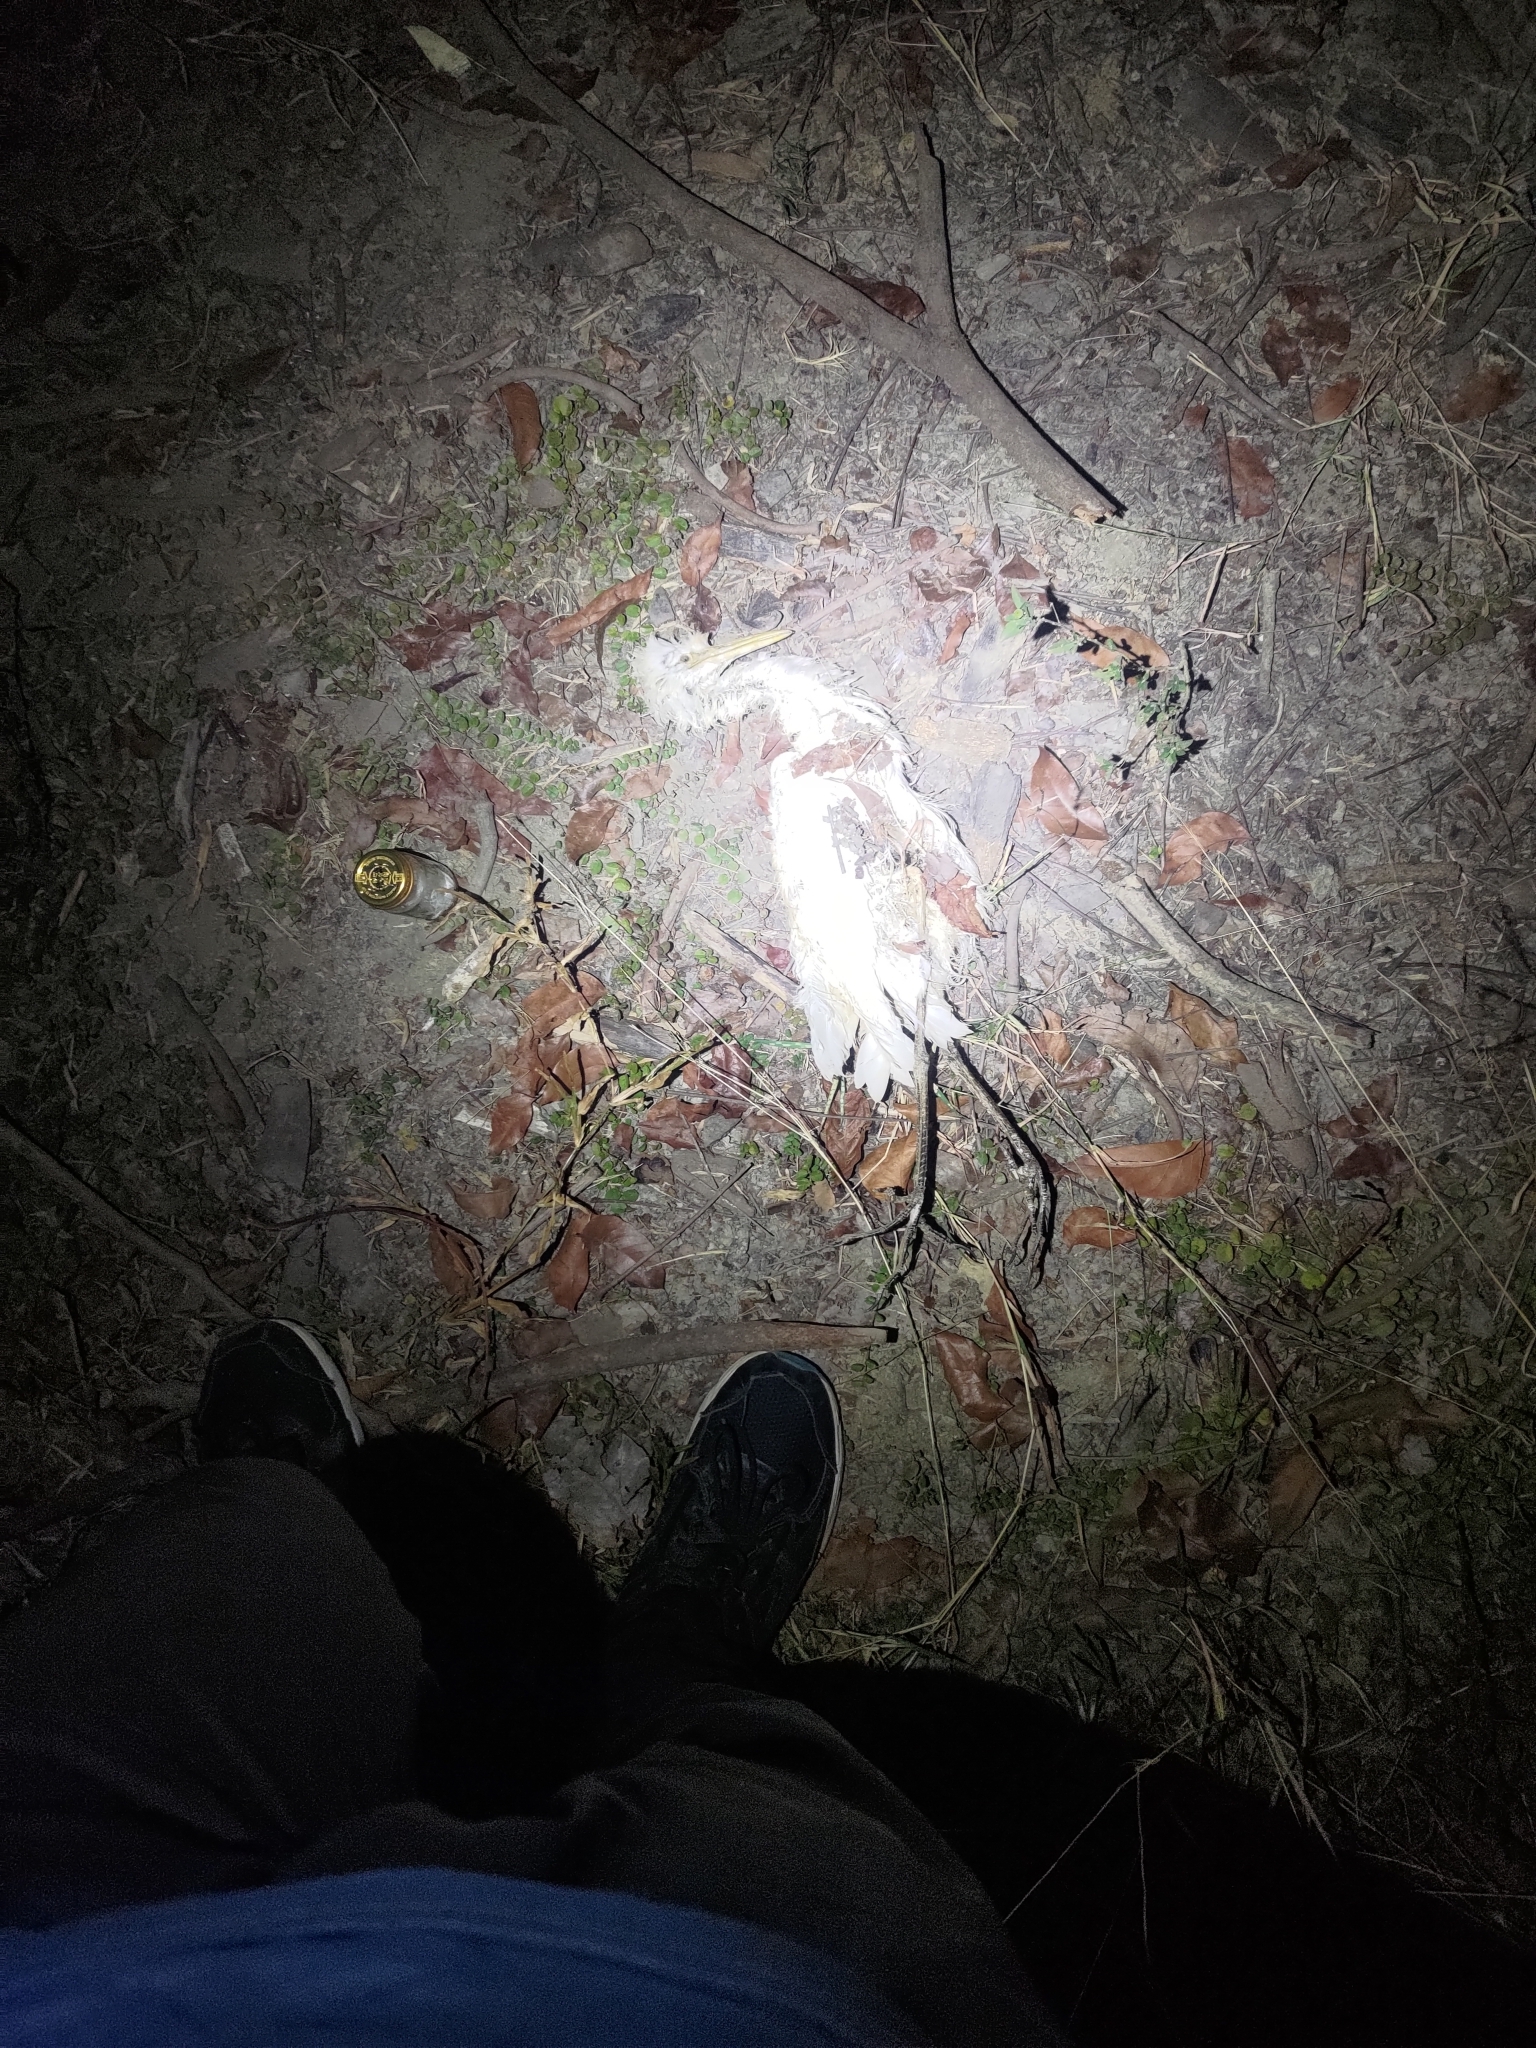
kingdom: Animalia
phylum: Chordata
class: Aves
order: Pelecaniformes
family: Ardeidae
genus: Bubulcus
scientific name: Bubulcus coromandus
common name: Eastern cattle egret
